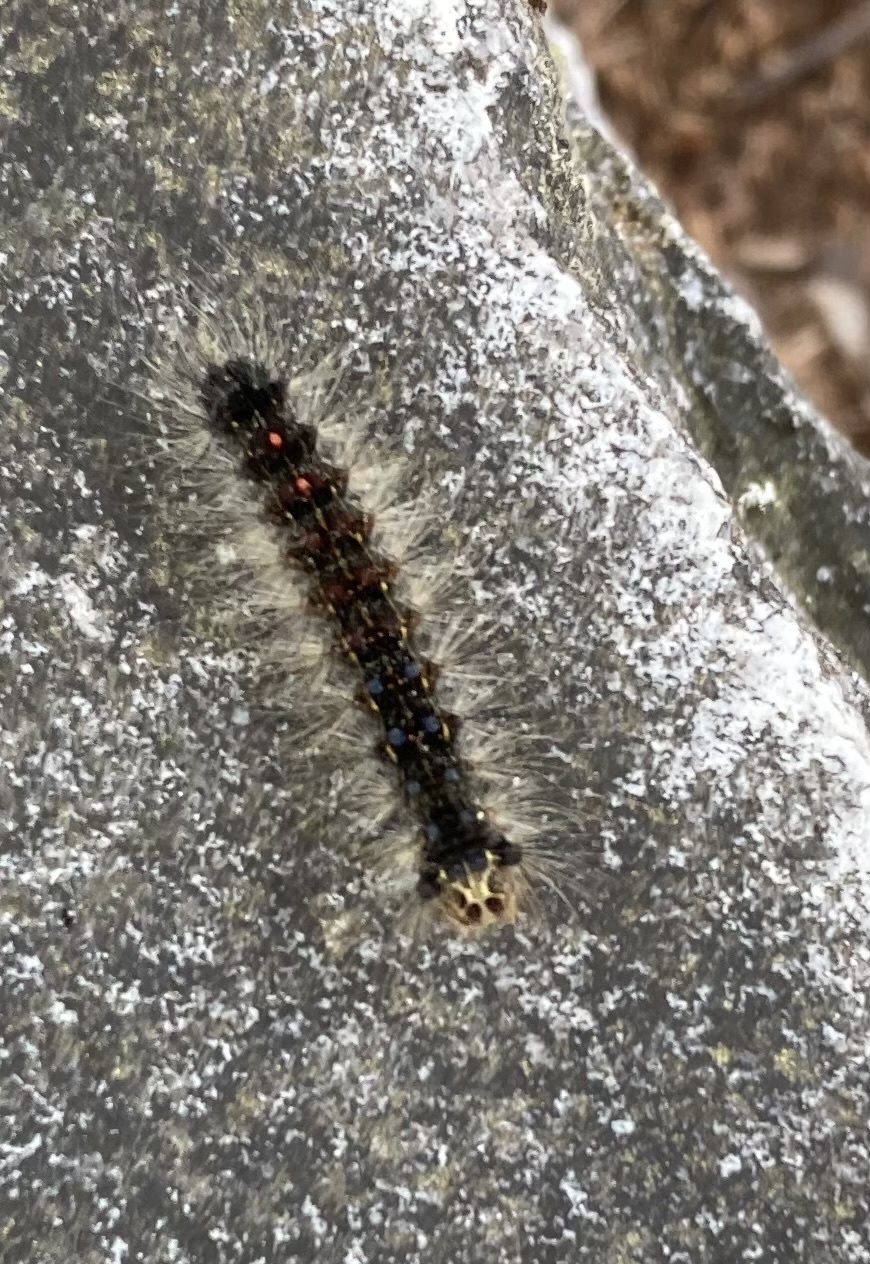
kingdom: Animalia
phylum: Arthropoda
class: Insecta
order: Lepidoptera
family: Erebidae
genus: Lymantria
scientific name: Lymantria dispar
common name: Gypsy moth
